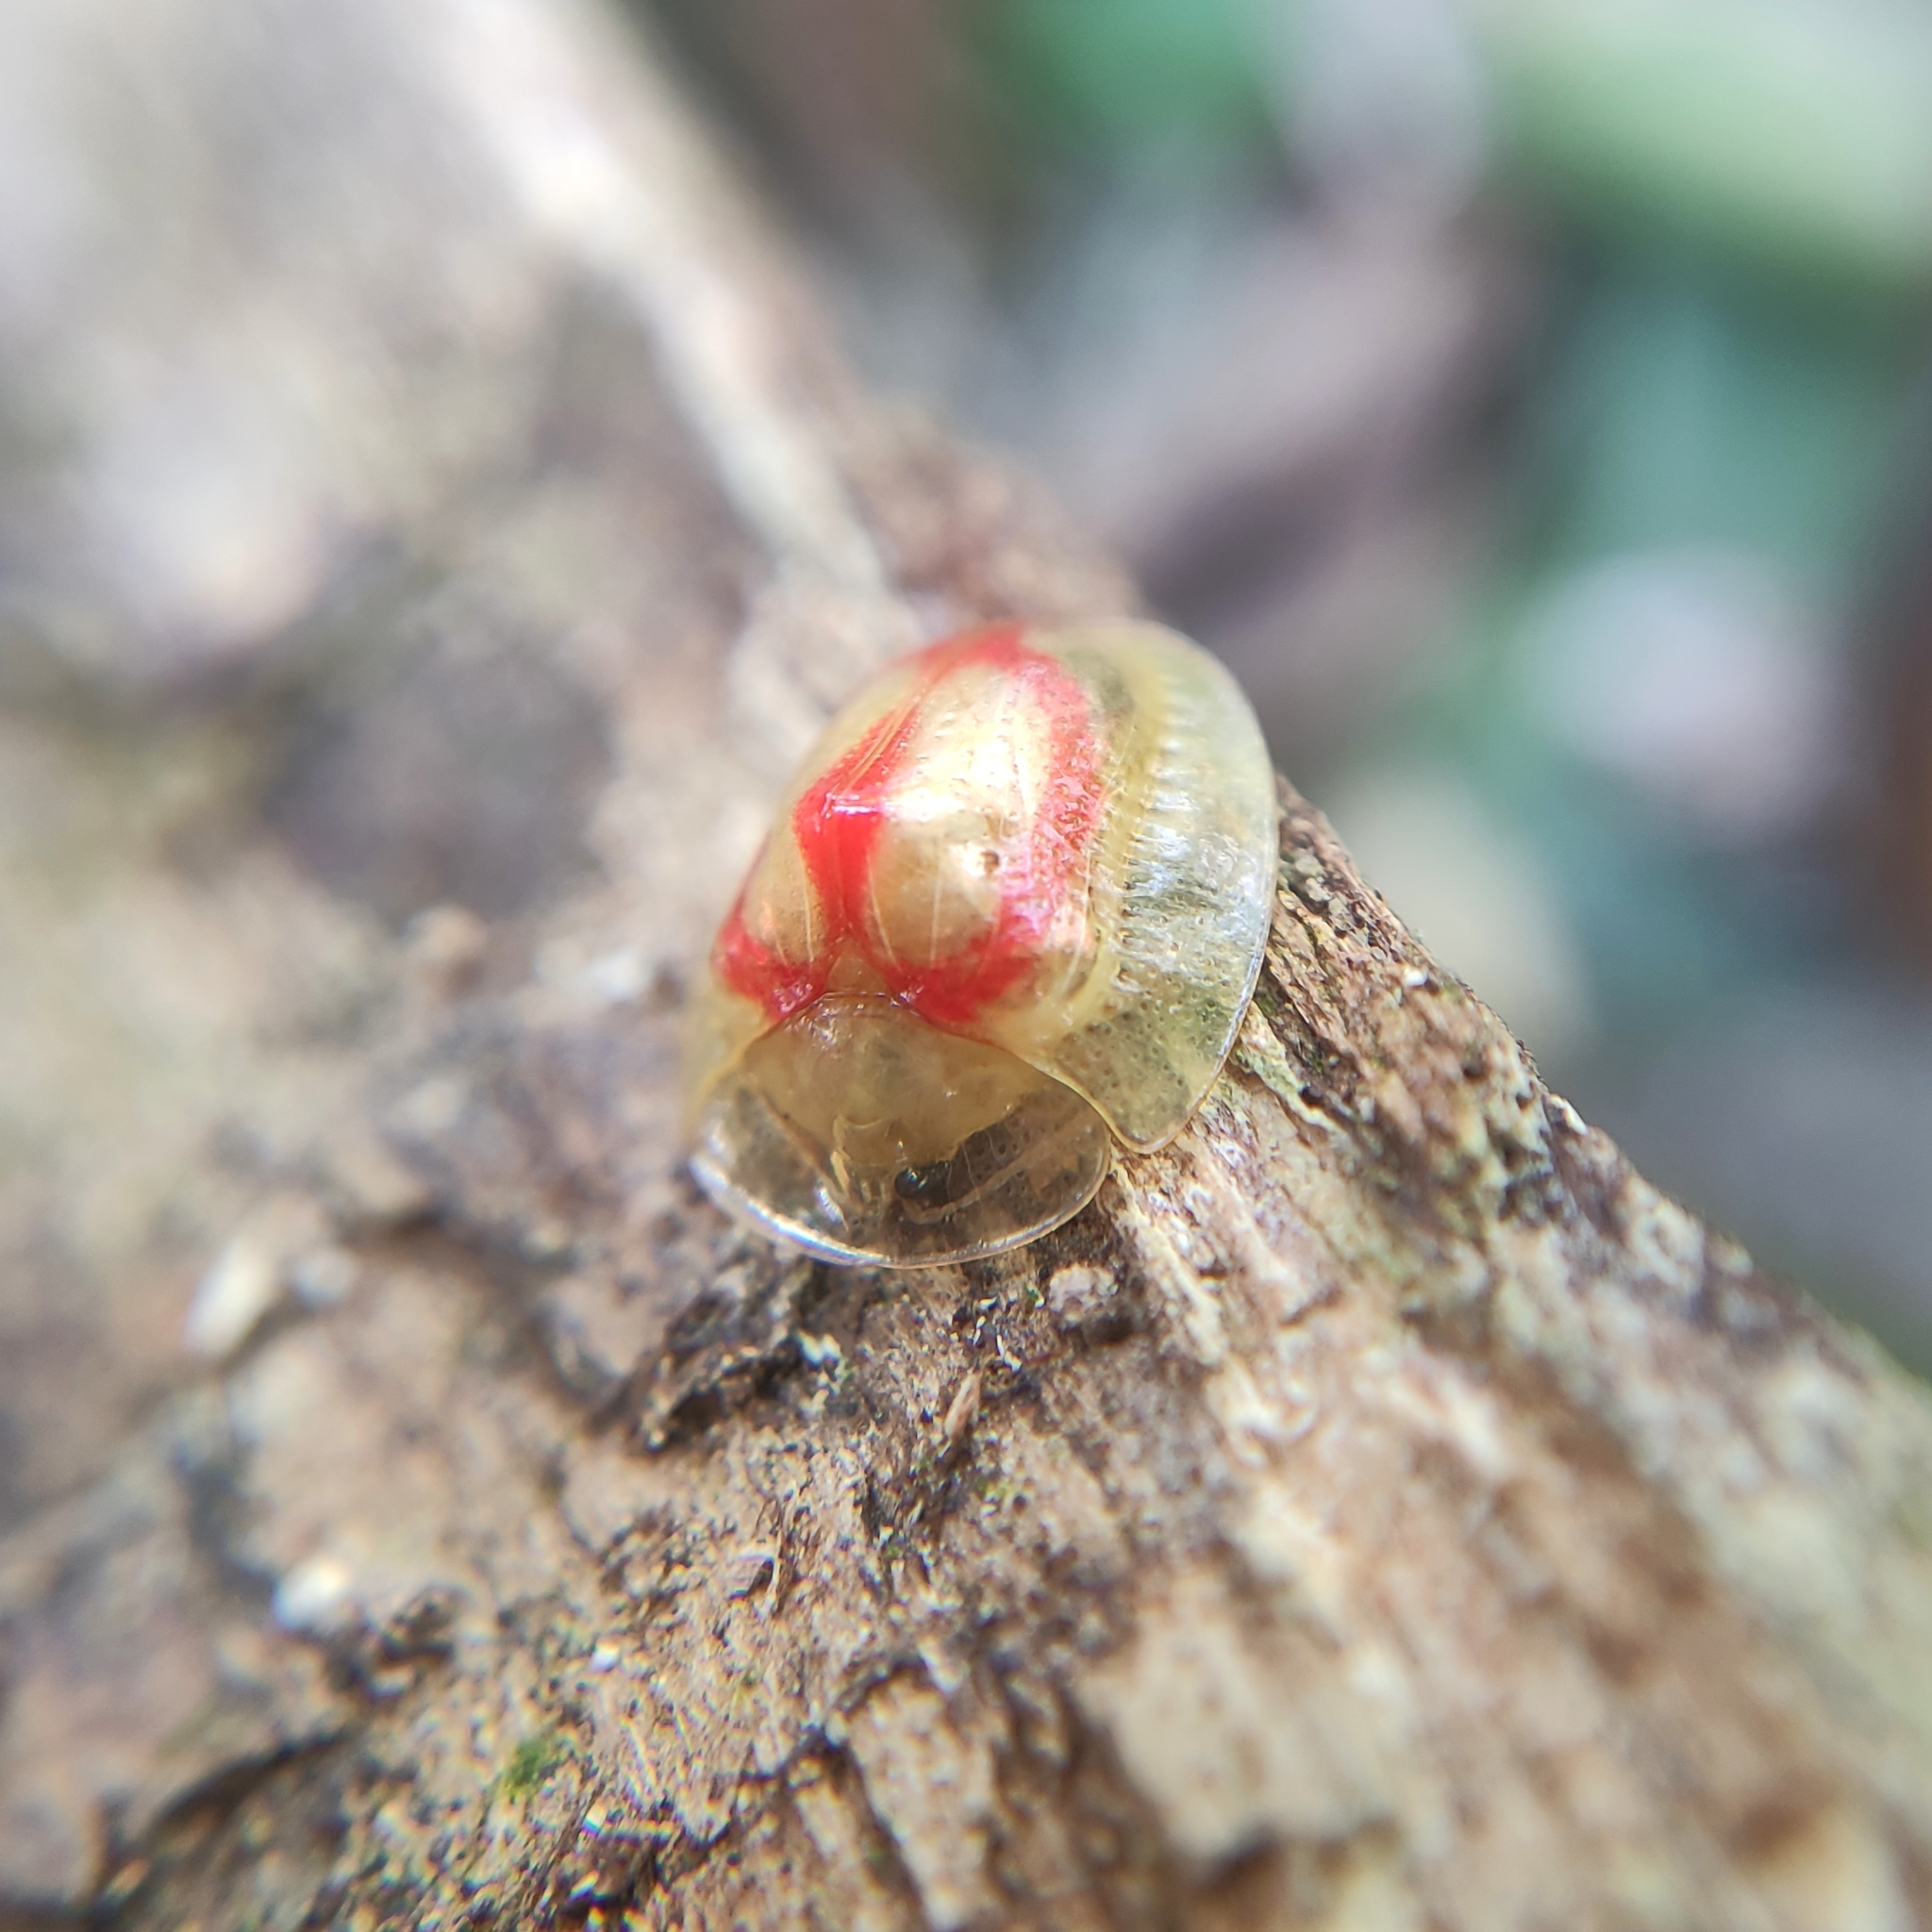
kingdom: Animalia
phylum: Arthropoda
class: Insecta
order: Coleoptera
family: Chrysomelidae
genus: Charidotis
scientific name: Charidotis candens
